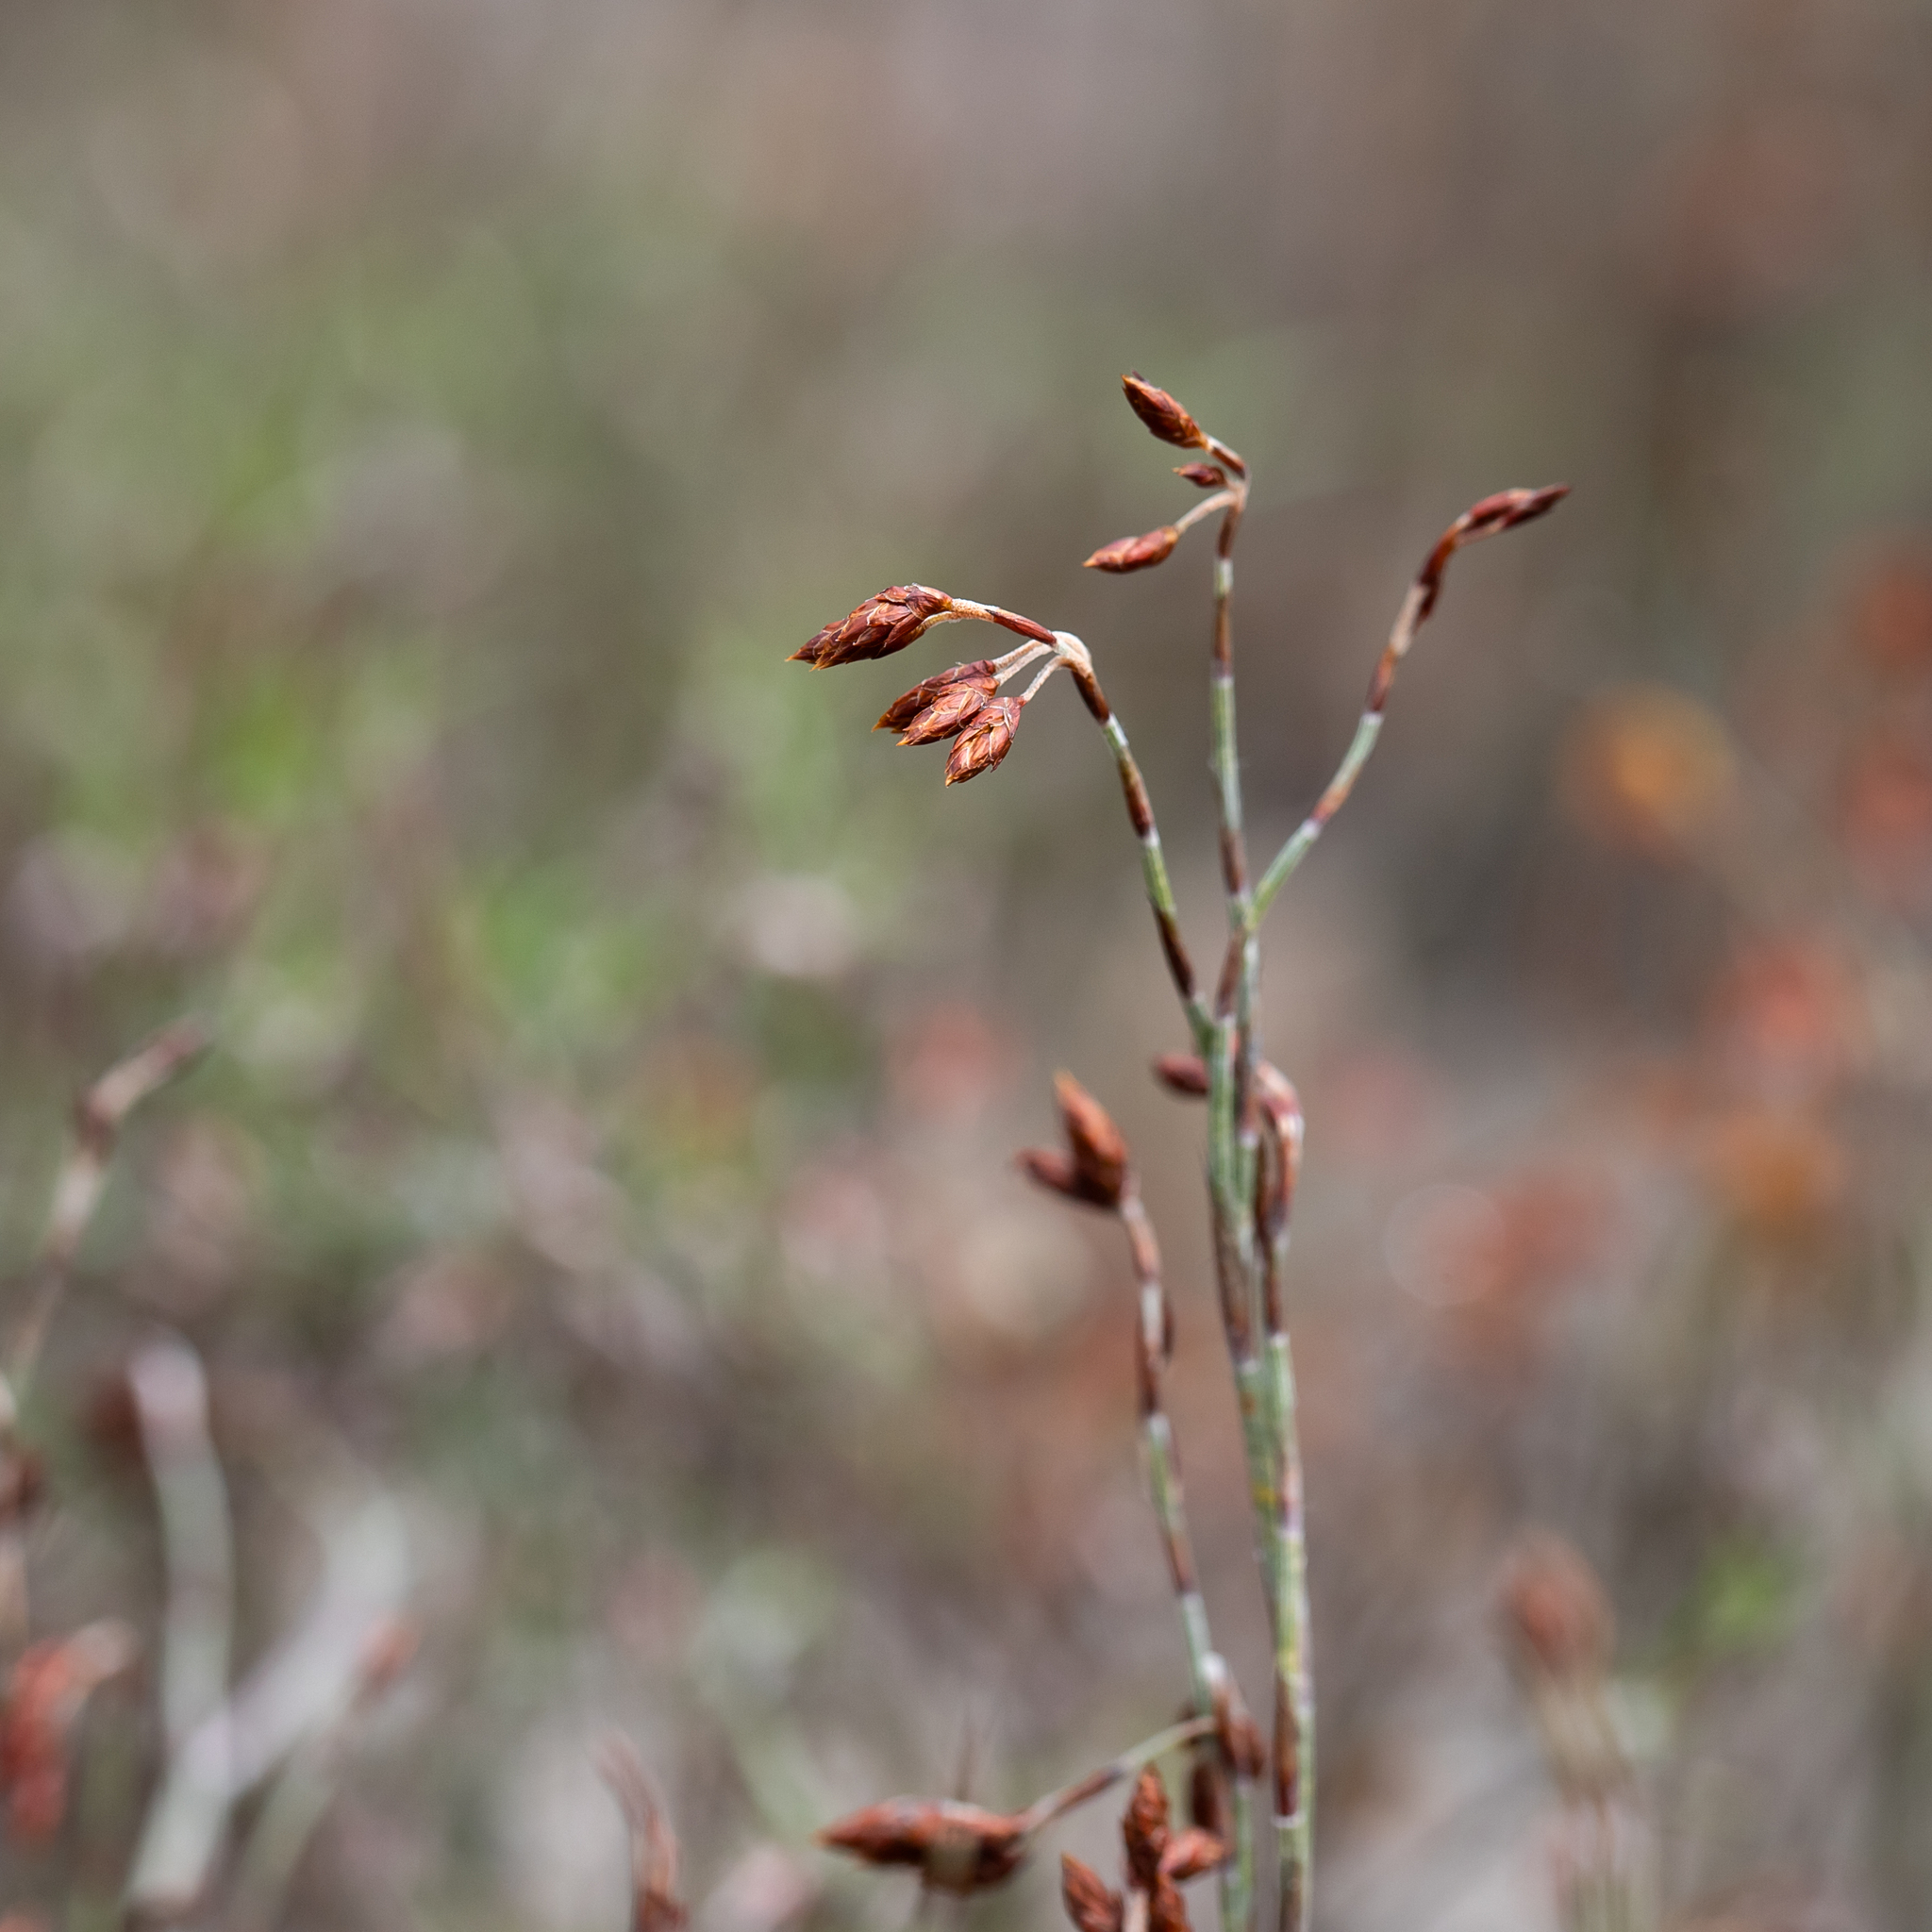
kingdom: Plantae
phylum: Tracheophyta
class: Liliopsida
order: Poales
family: Restionaceae
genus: Hypolaena
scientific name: Hypolaena fastigiata
